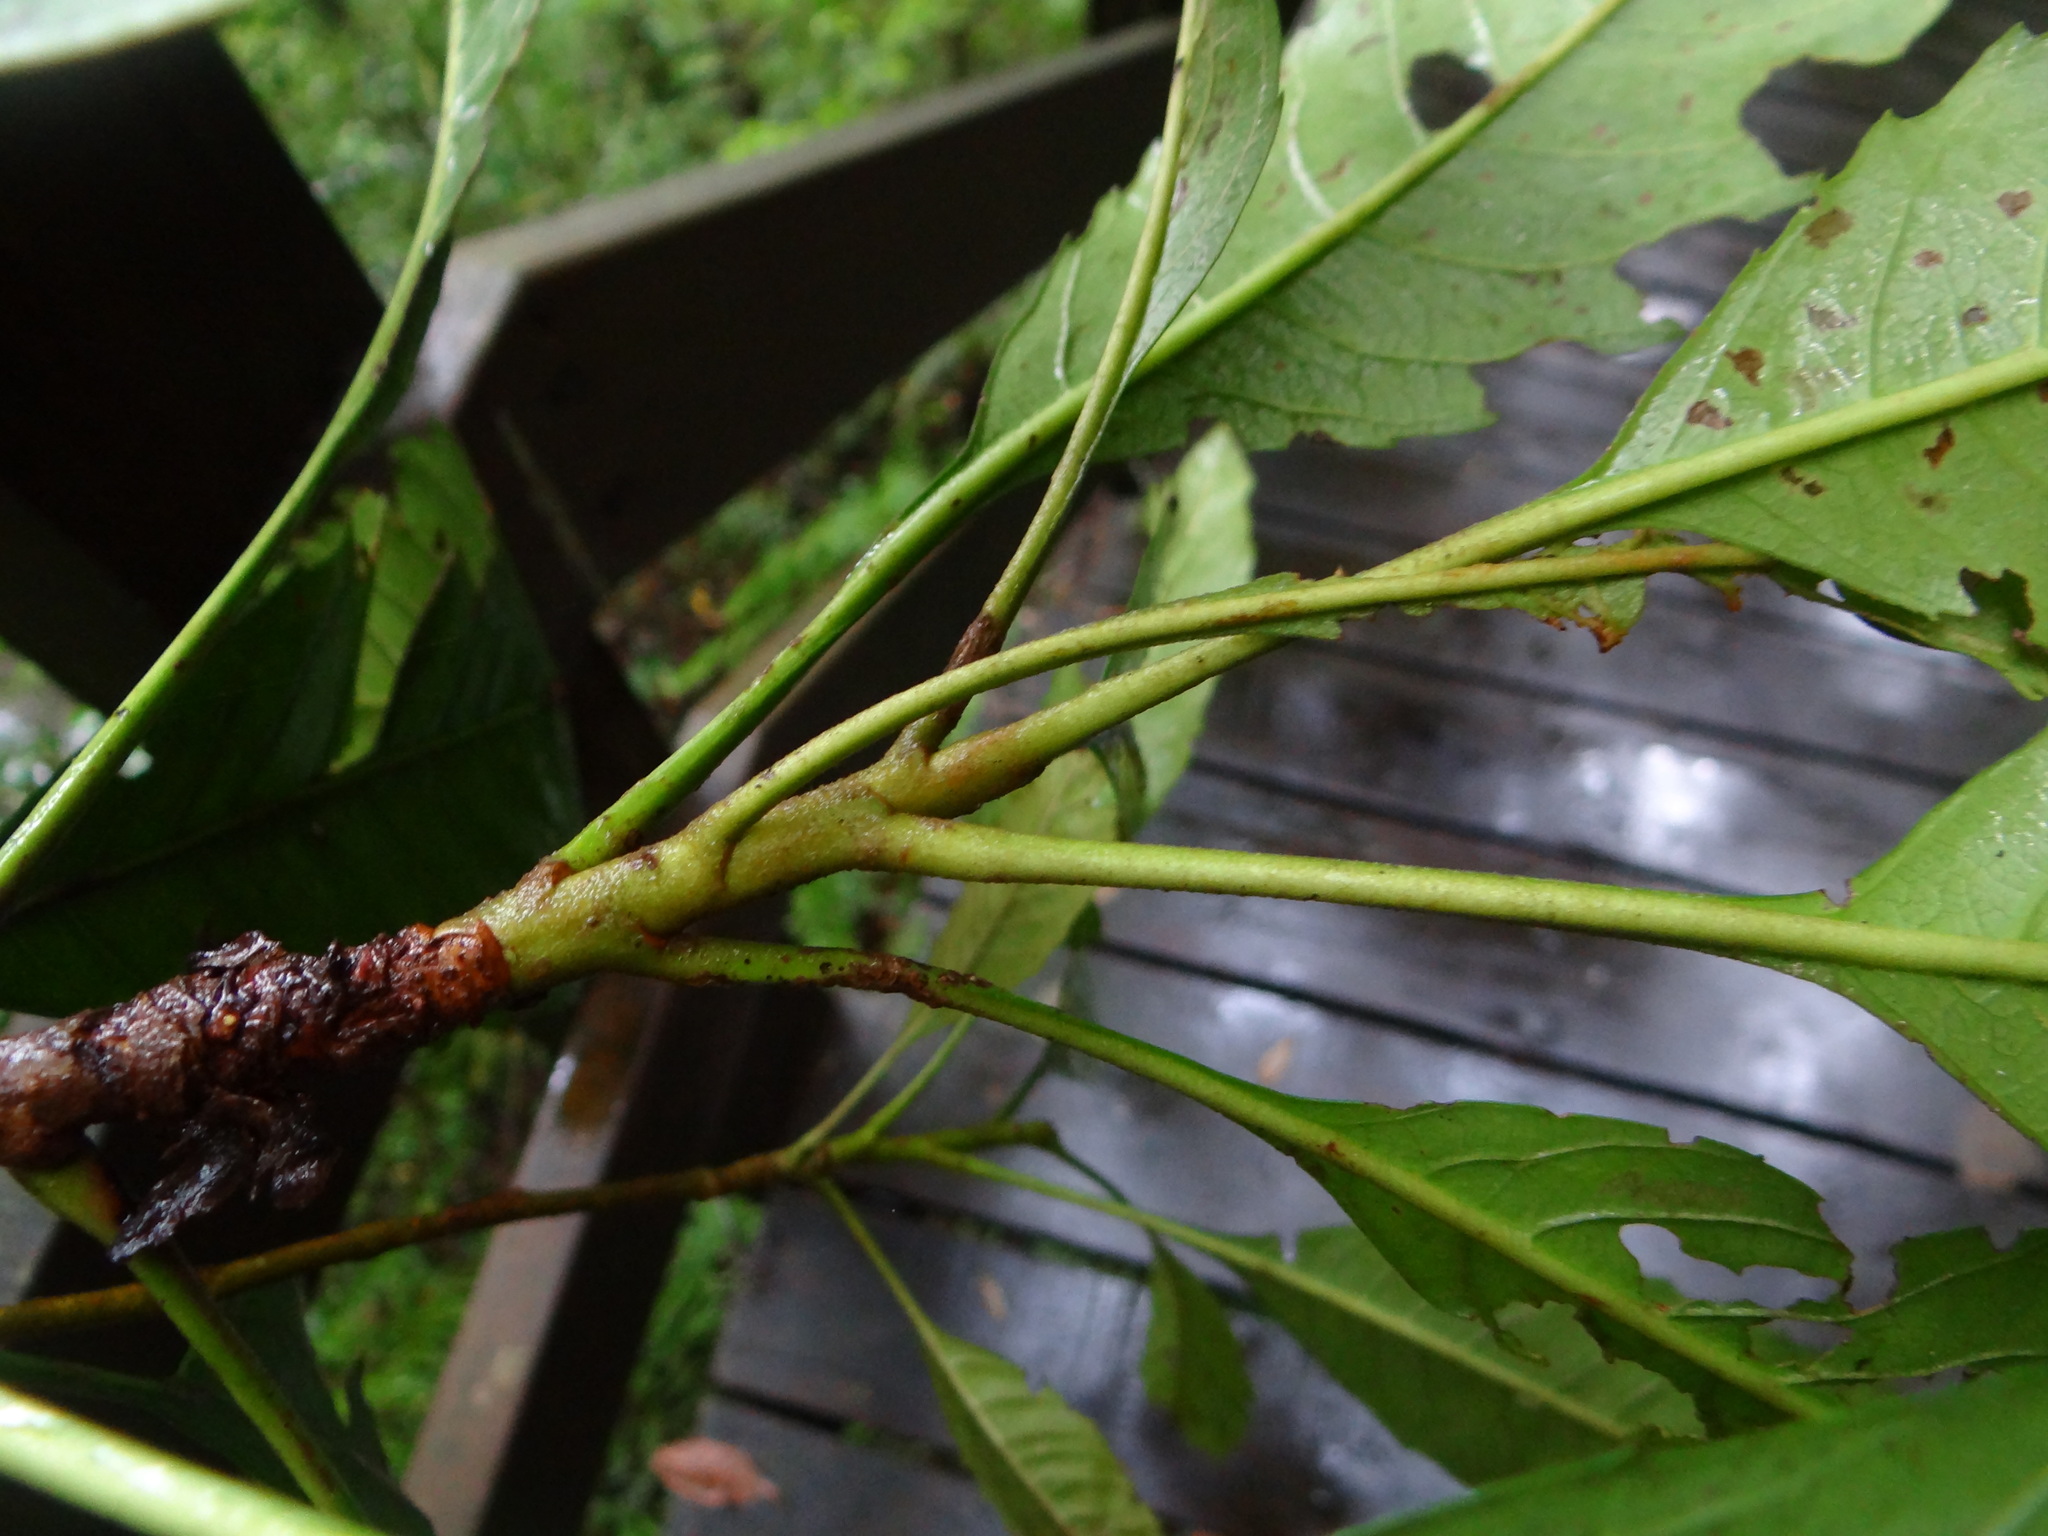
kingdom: Plantae
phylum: Tracheophyta
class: Magnoliopsida
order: Rosales
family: Rosaceae
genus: Rhaphiolepis
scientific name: Rhaphiolepis deflexa
